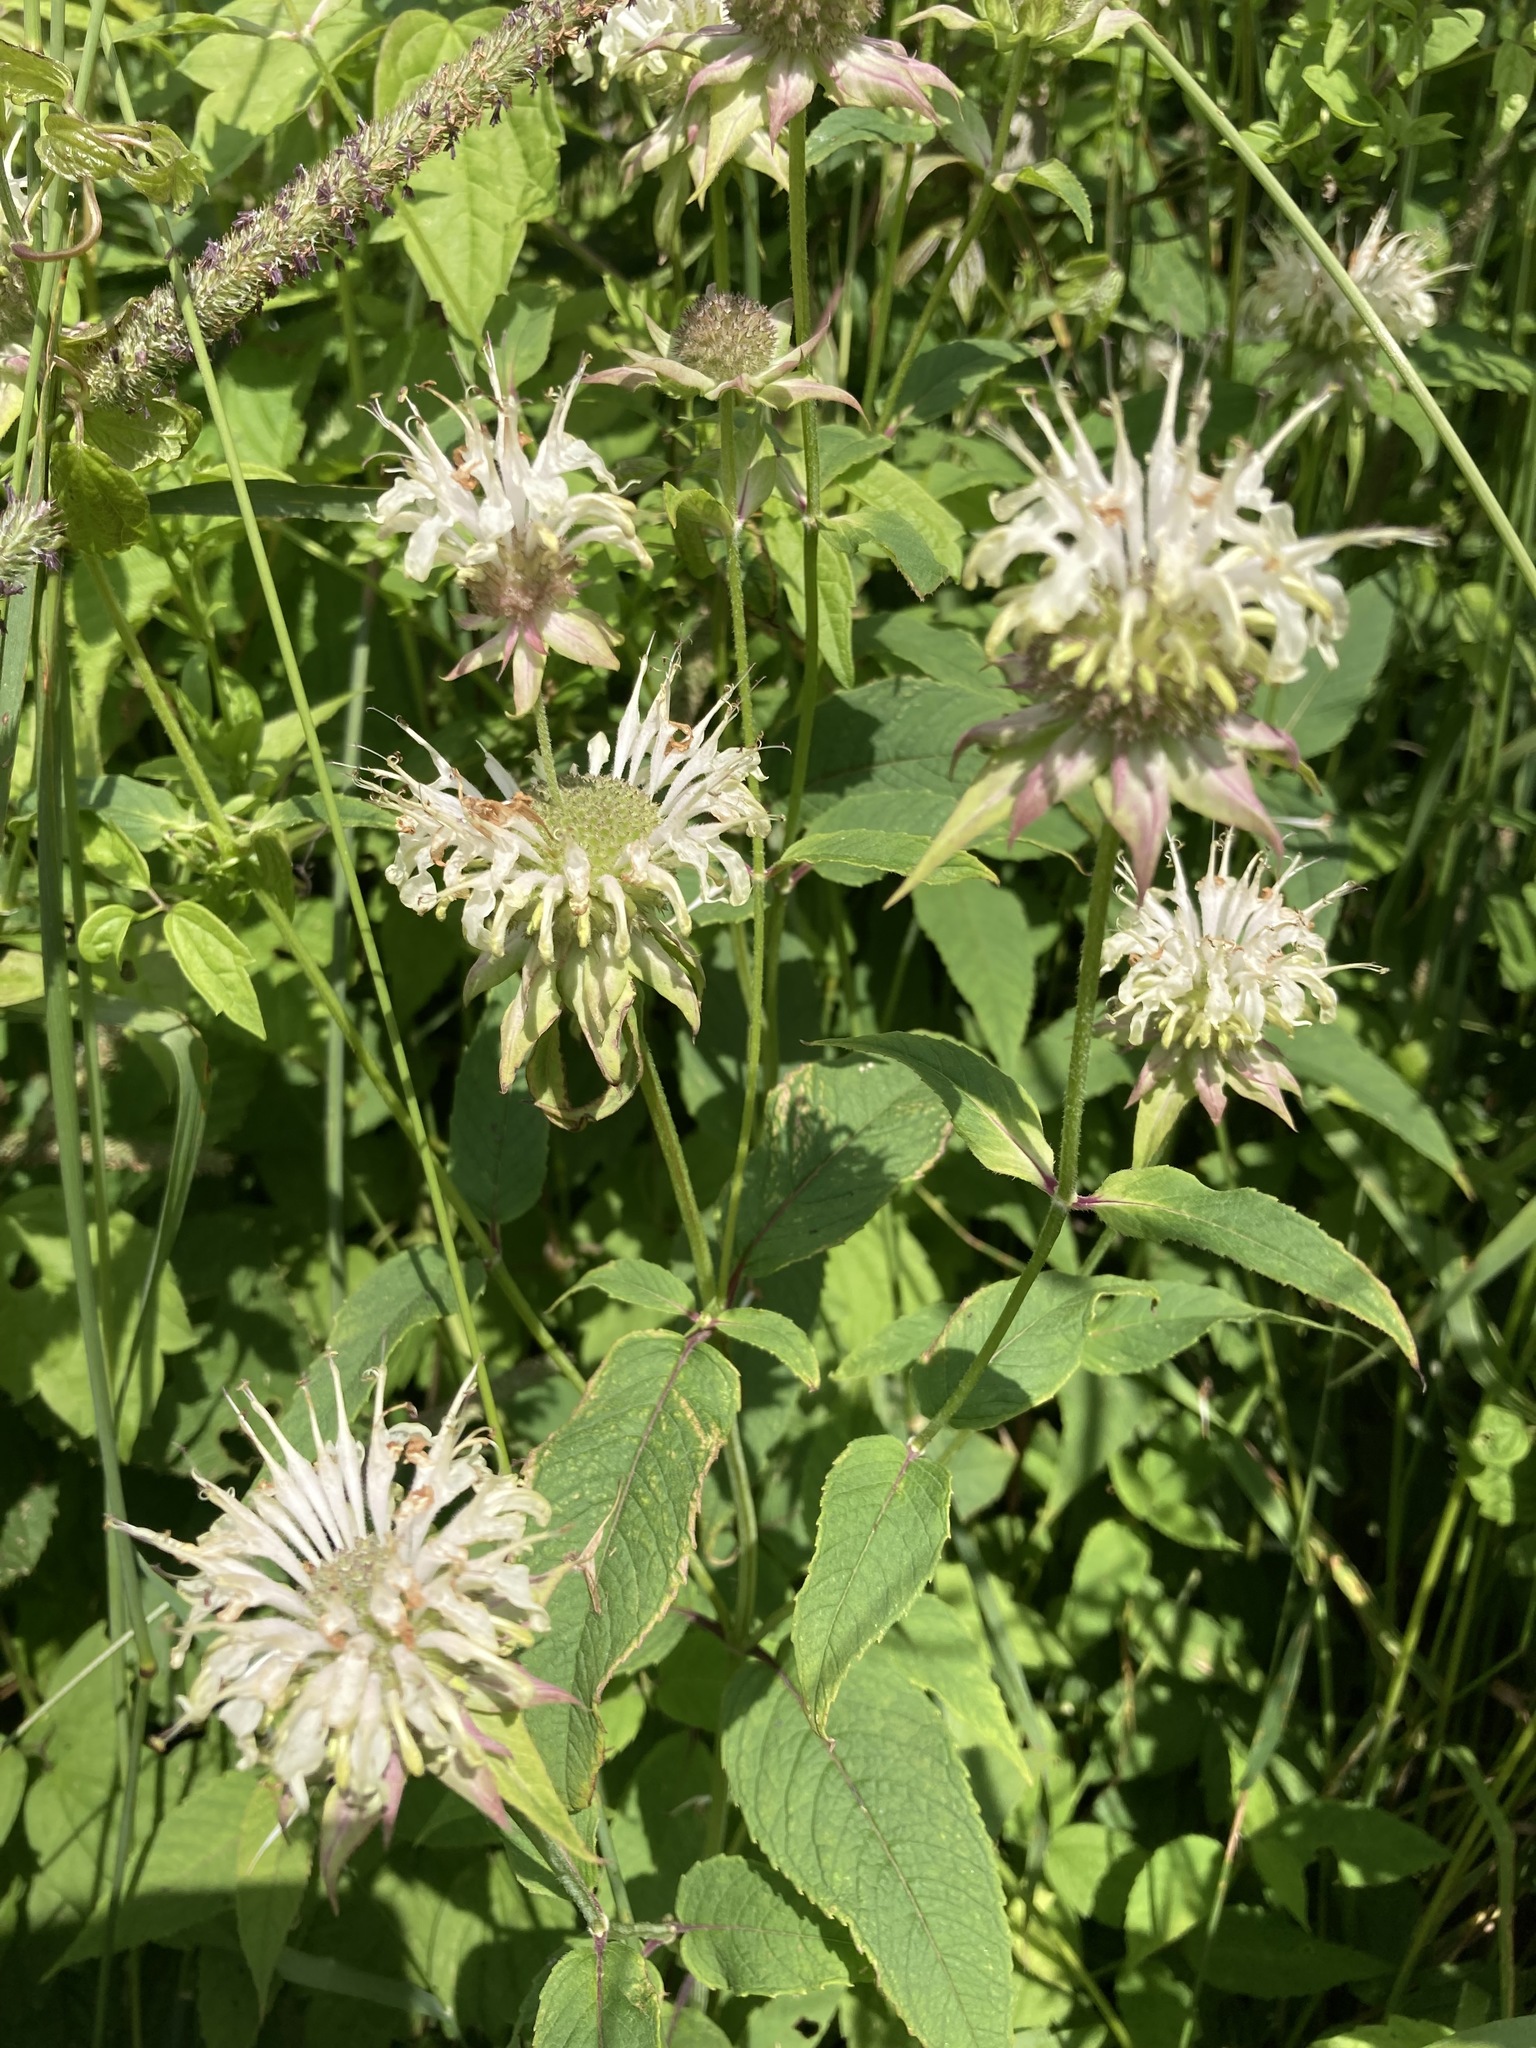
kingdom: Plantae
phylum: Tracheophyta
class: Magnoliopsida
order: Lamiales
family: Lamiaceae
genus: Monarda
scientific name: Monarda clinopodia
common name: Basil beebalm
